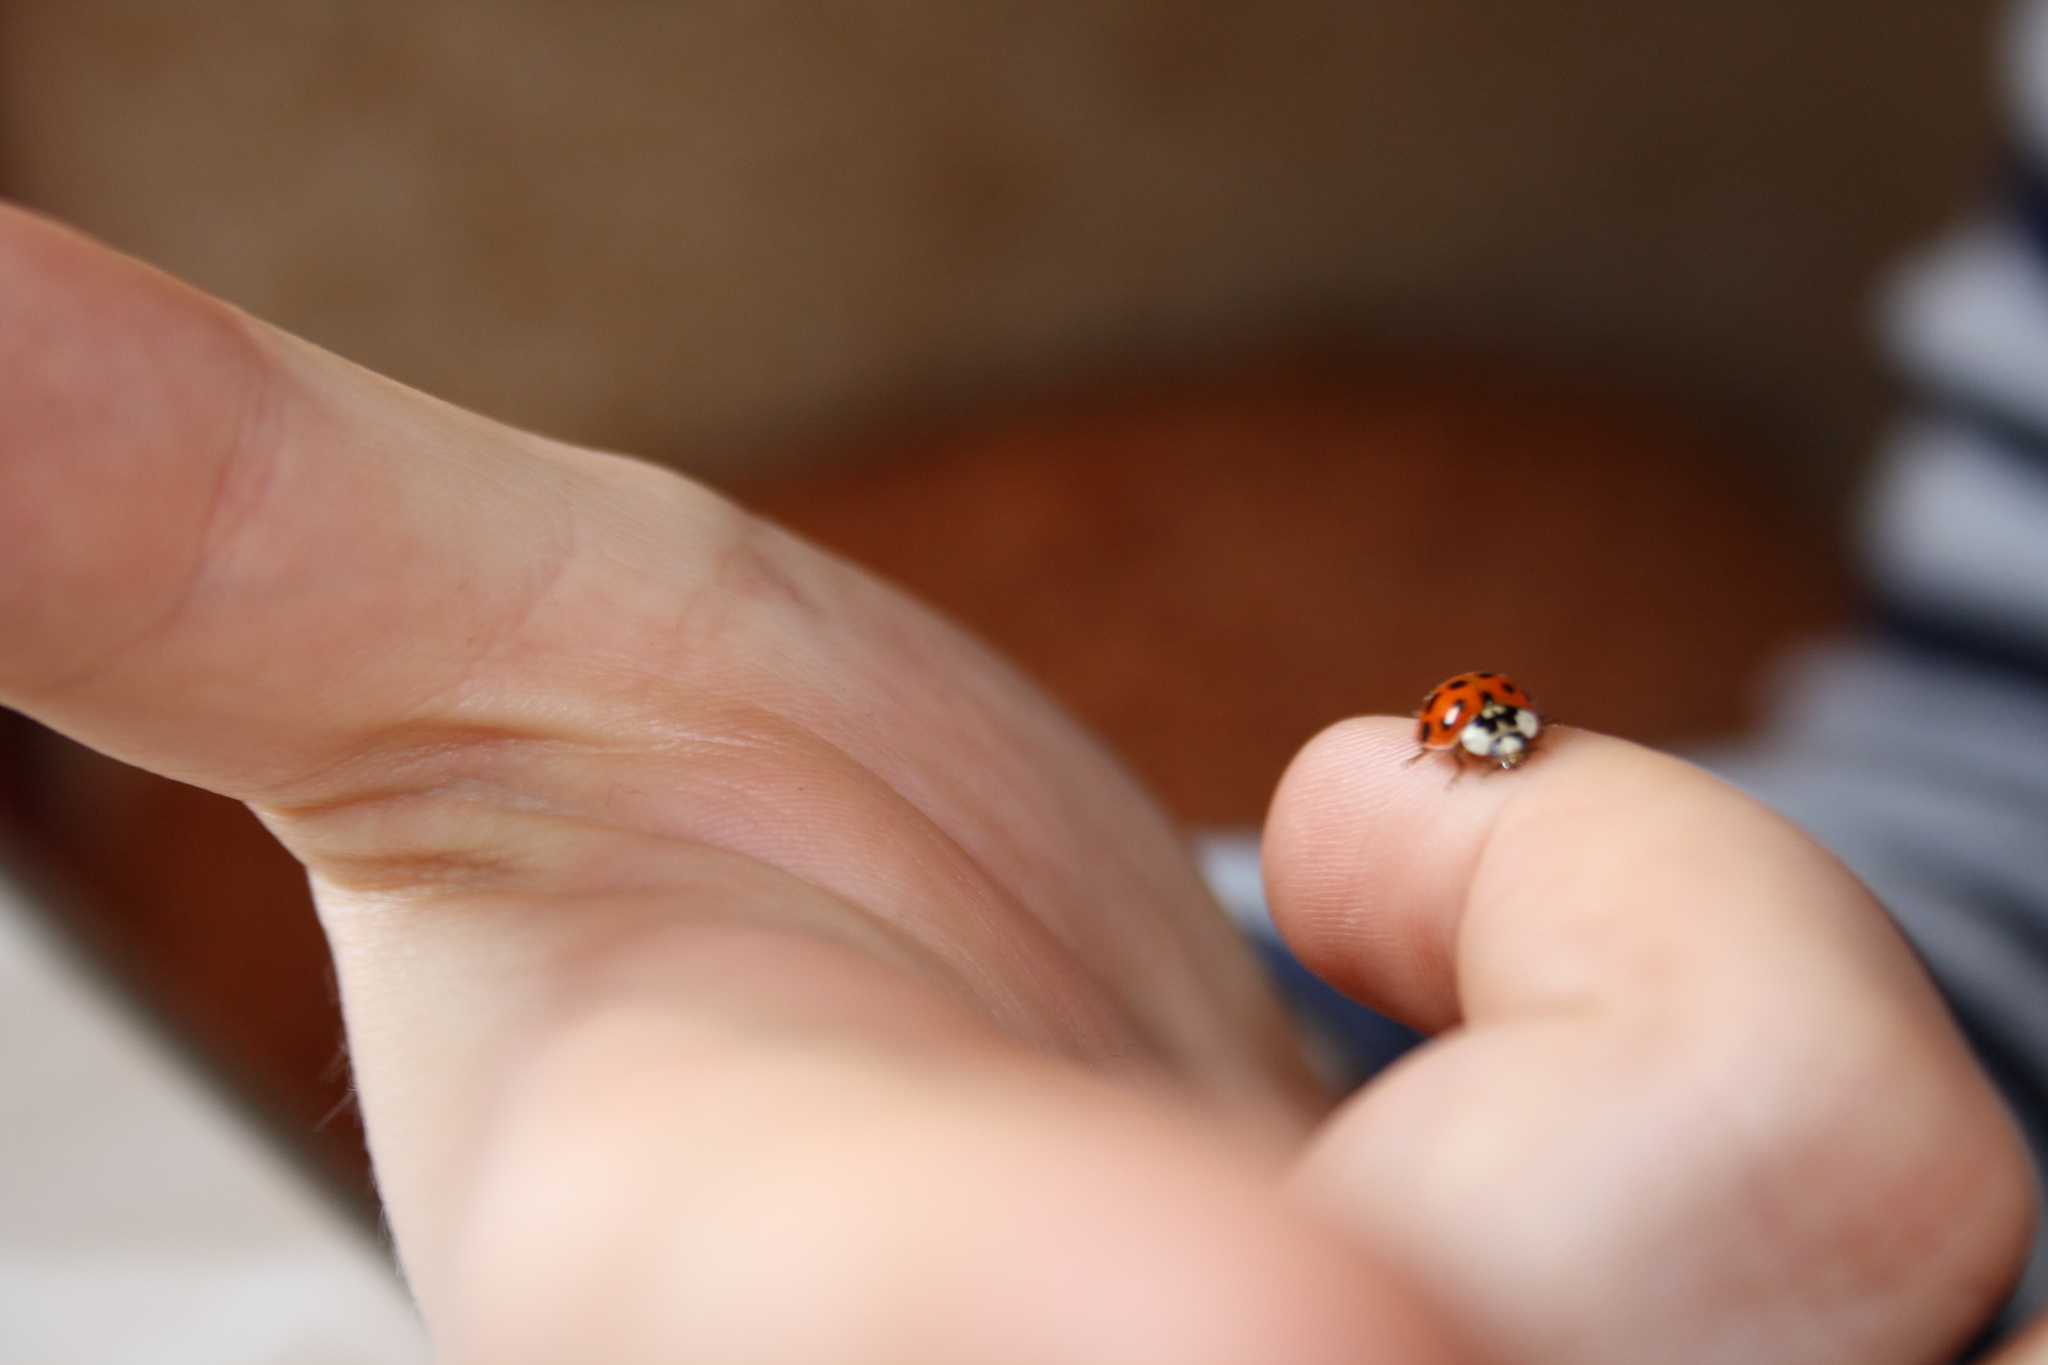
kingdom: Animalia
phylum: Arthropoda
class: Insecta
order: Coleoptera
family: Coccinellidae
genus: Harmonia
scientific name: Harmonia axyridis
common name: Harlequin ladybird
